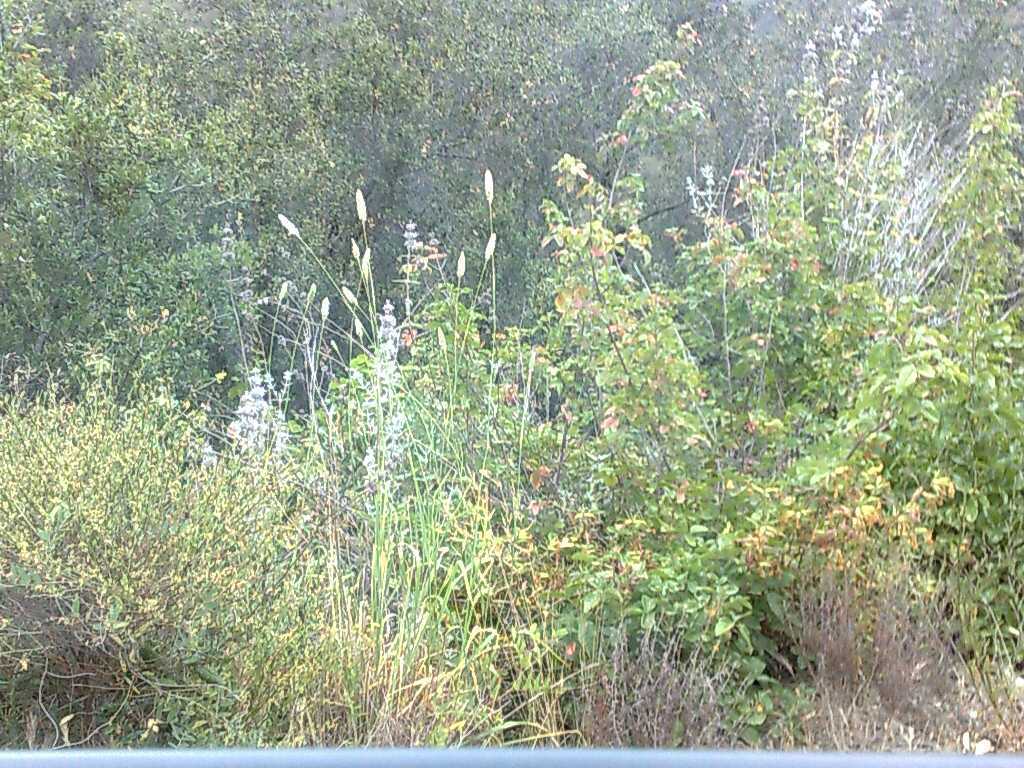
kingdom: Plantae
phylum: Tracheophyta
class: Liliopsida
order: Poales
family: Poaceae
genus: Phalaris
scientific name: Phalaris aquatica
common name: Bulbous canary-grass
